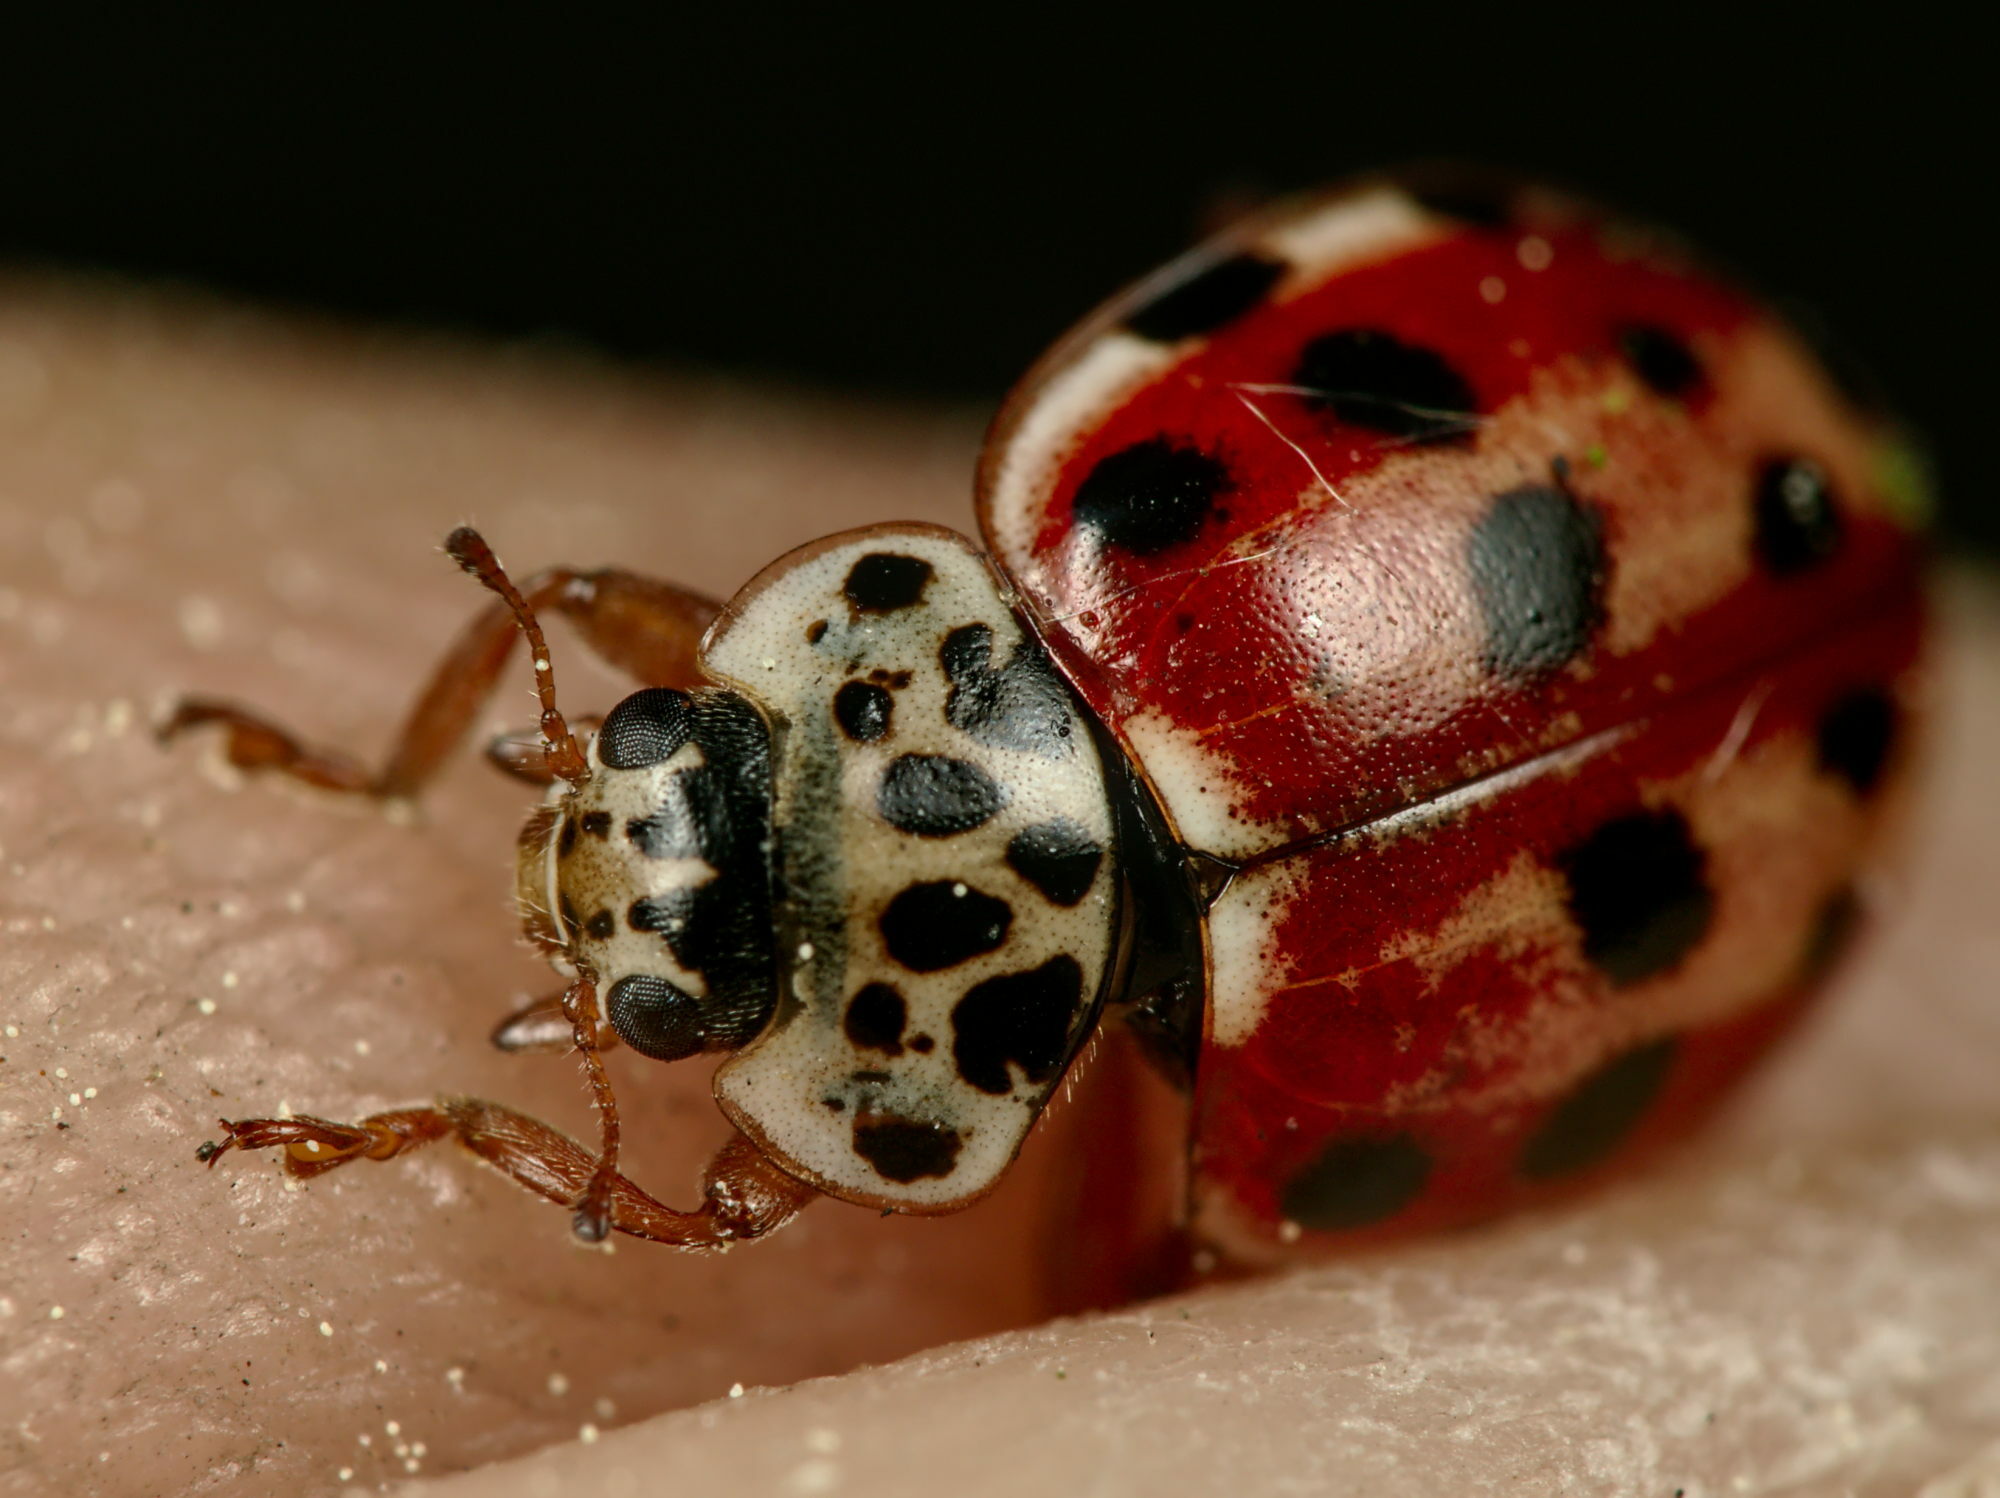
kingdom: Animalia
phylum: Arthropoda
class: Insecta
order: Coleoptera
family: Coccinellidae
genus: Harmonia
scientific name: Harmonia quadripunctata
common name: Cream-streaked ladybird
